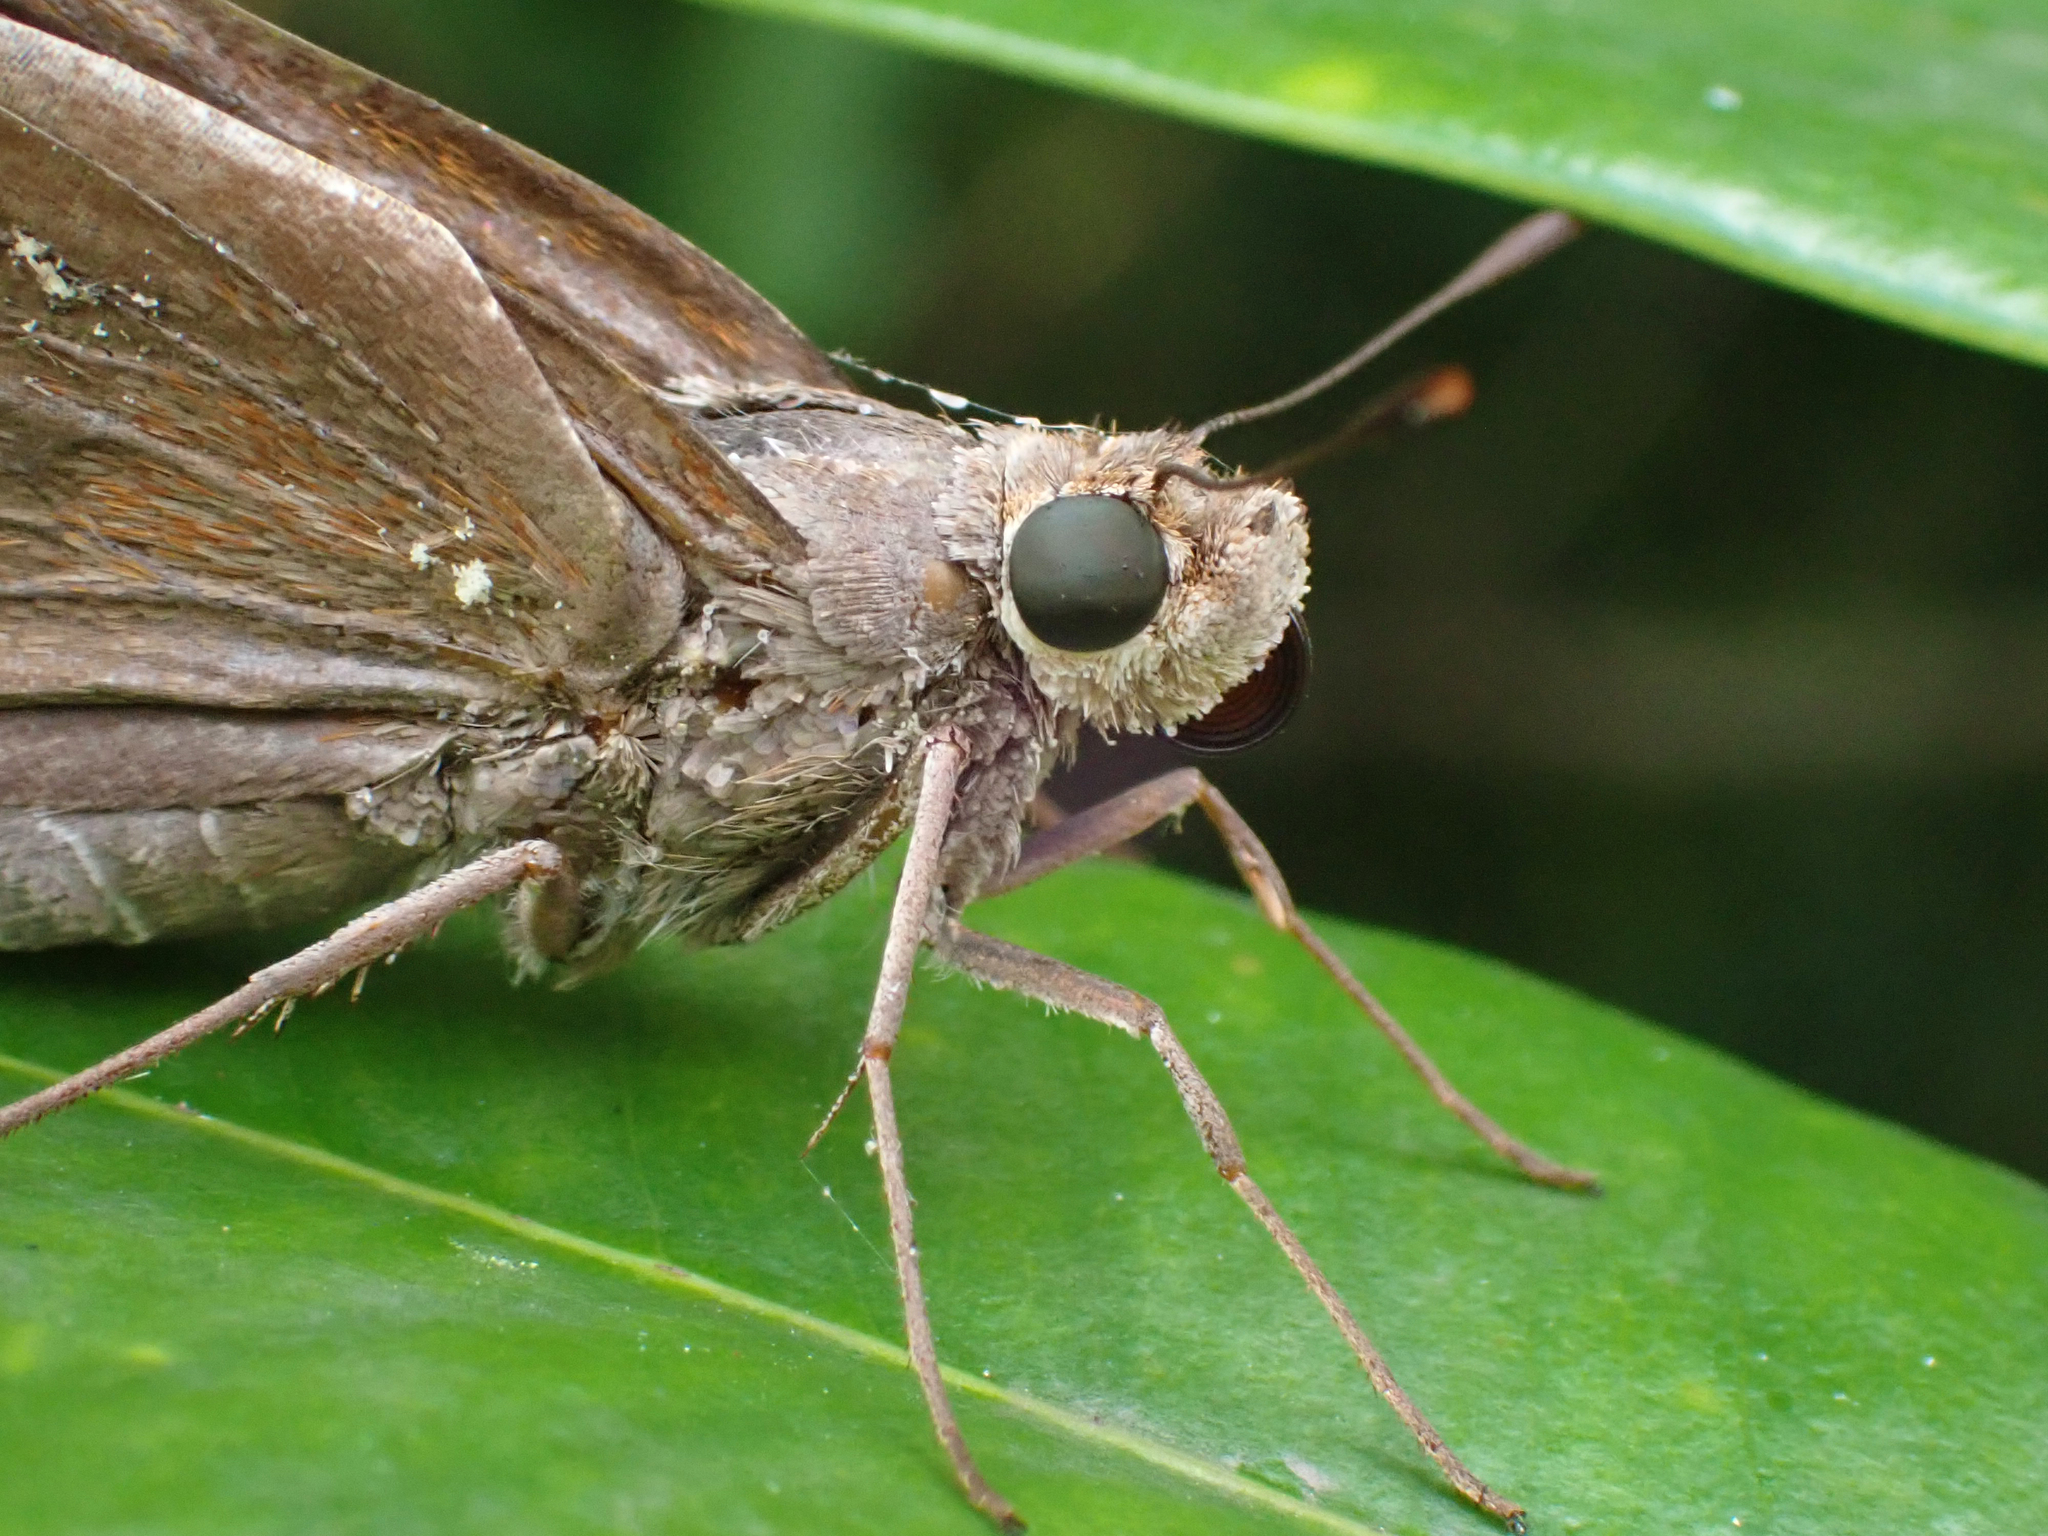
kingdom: Animalia
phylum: Arthropoda
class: Insecta
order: Lepidoptera
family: Hesperiidae
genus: Asbolis
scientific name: Asbolis capucinus
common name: Monk skipper
